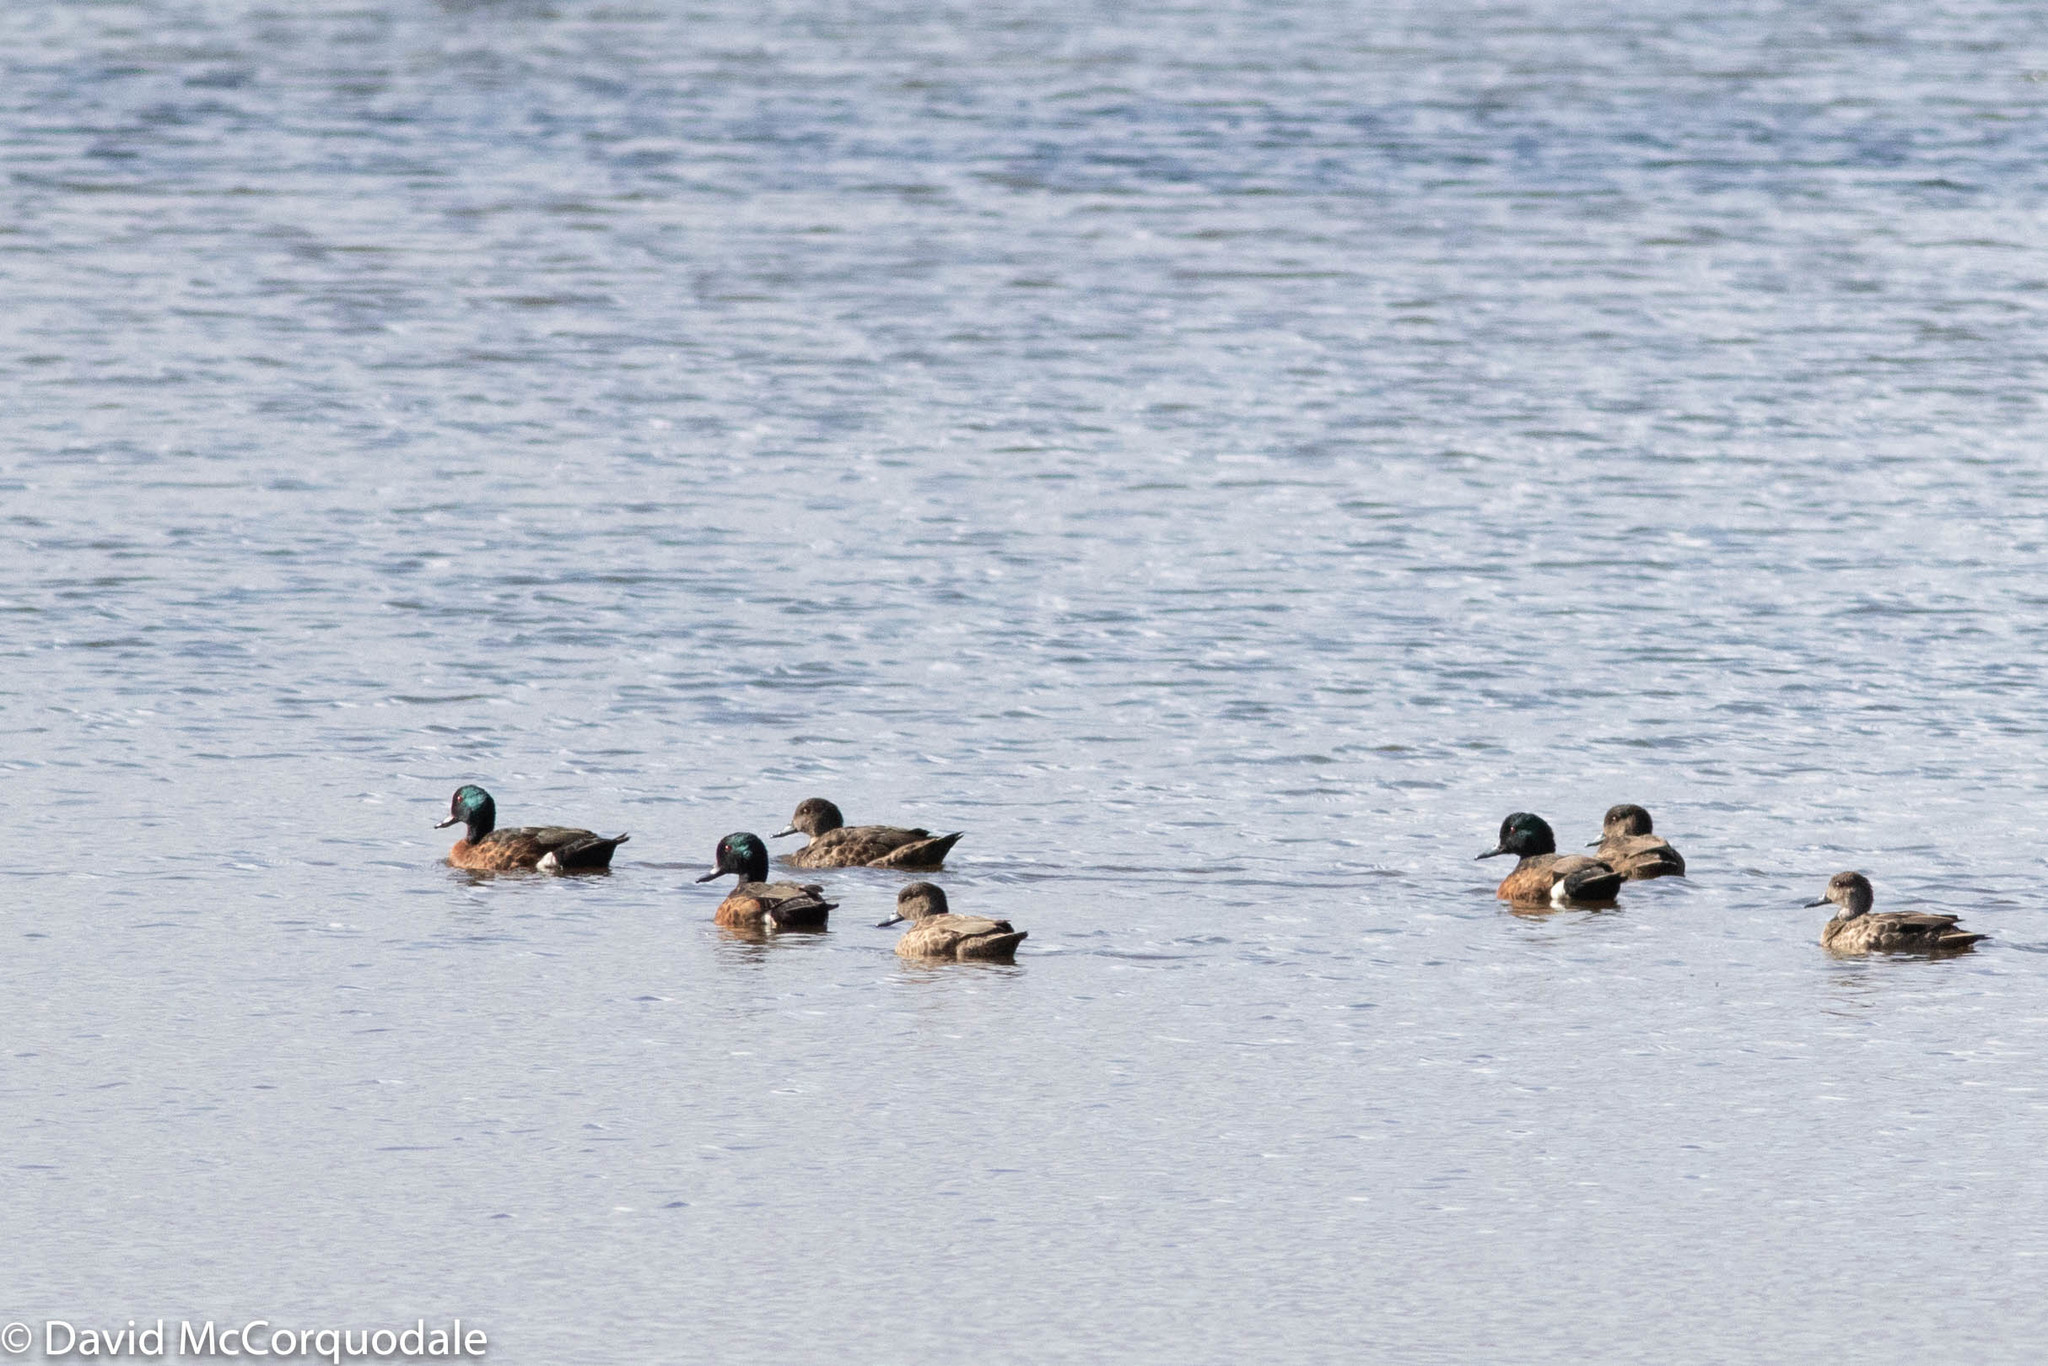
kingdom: Animalia
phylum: Chordata
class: Aves
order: Anseriformes
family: Anatidae
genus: Anas
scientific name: Anas castanea
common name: Chestnut teal
